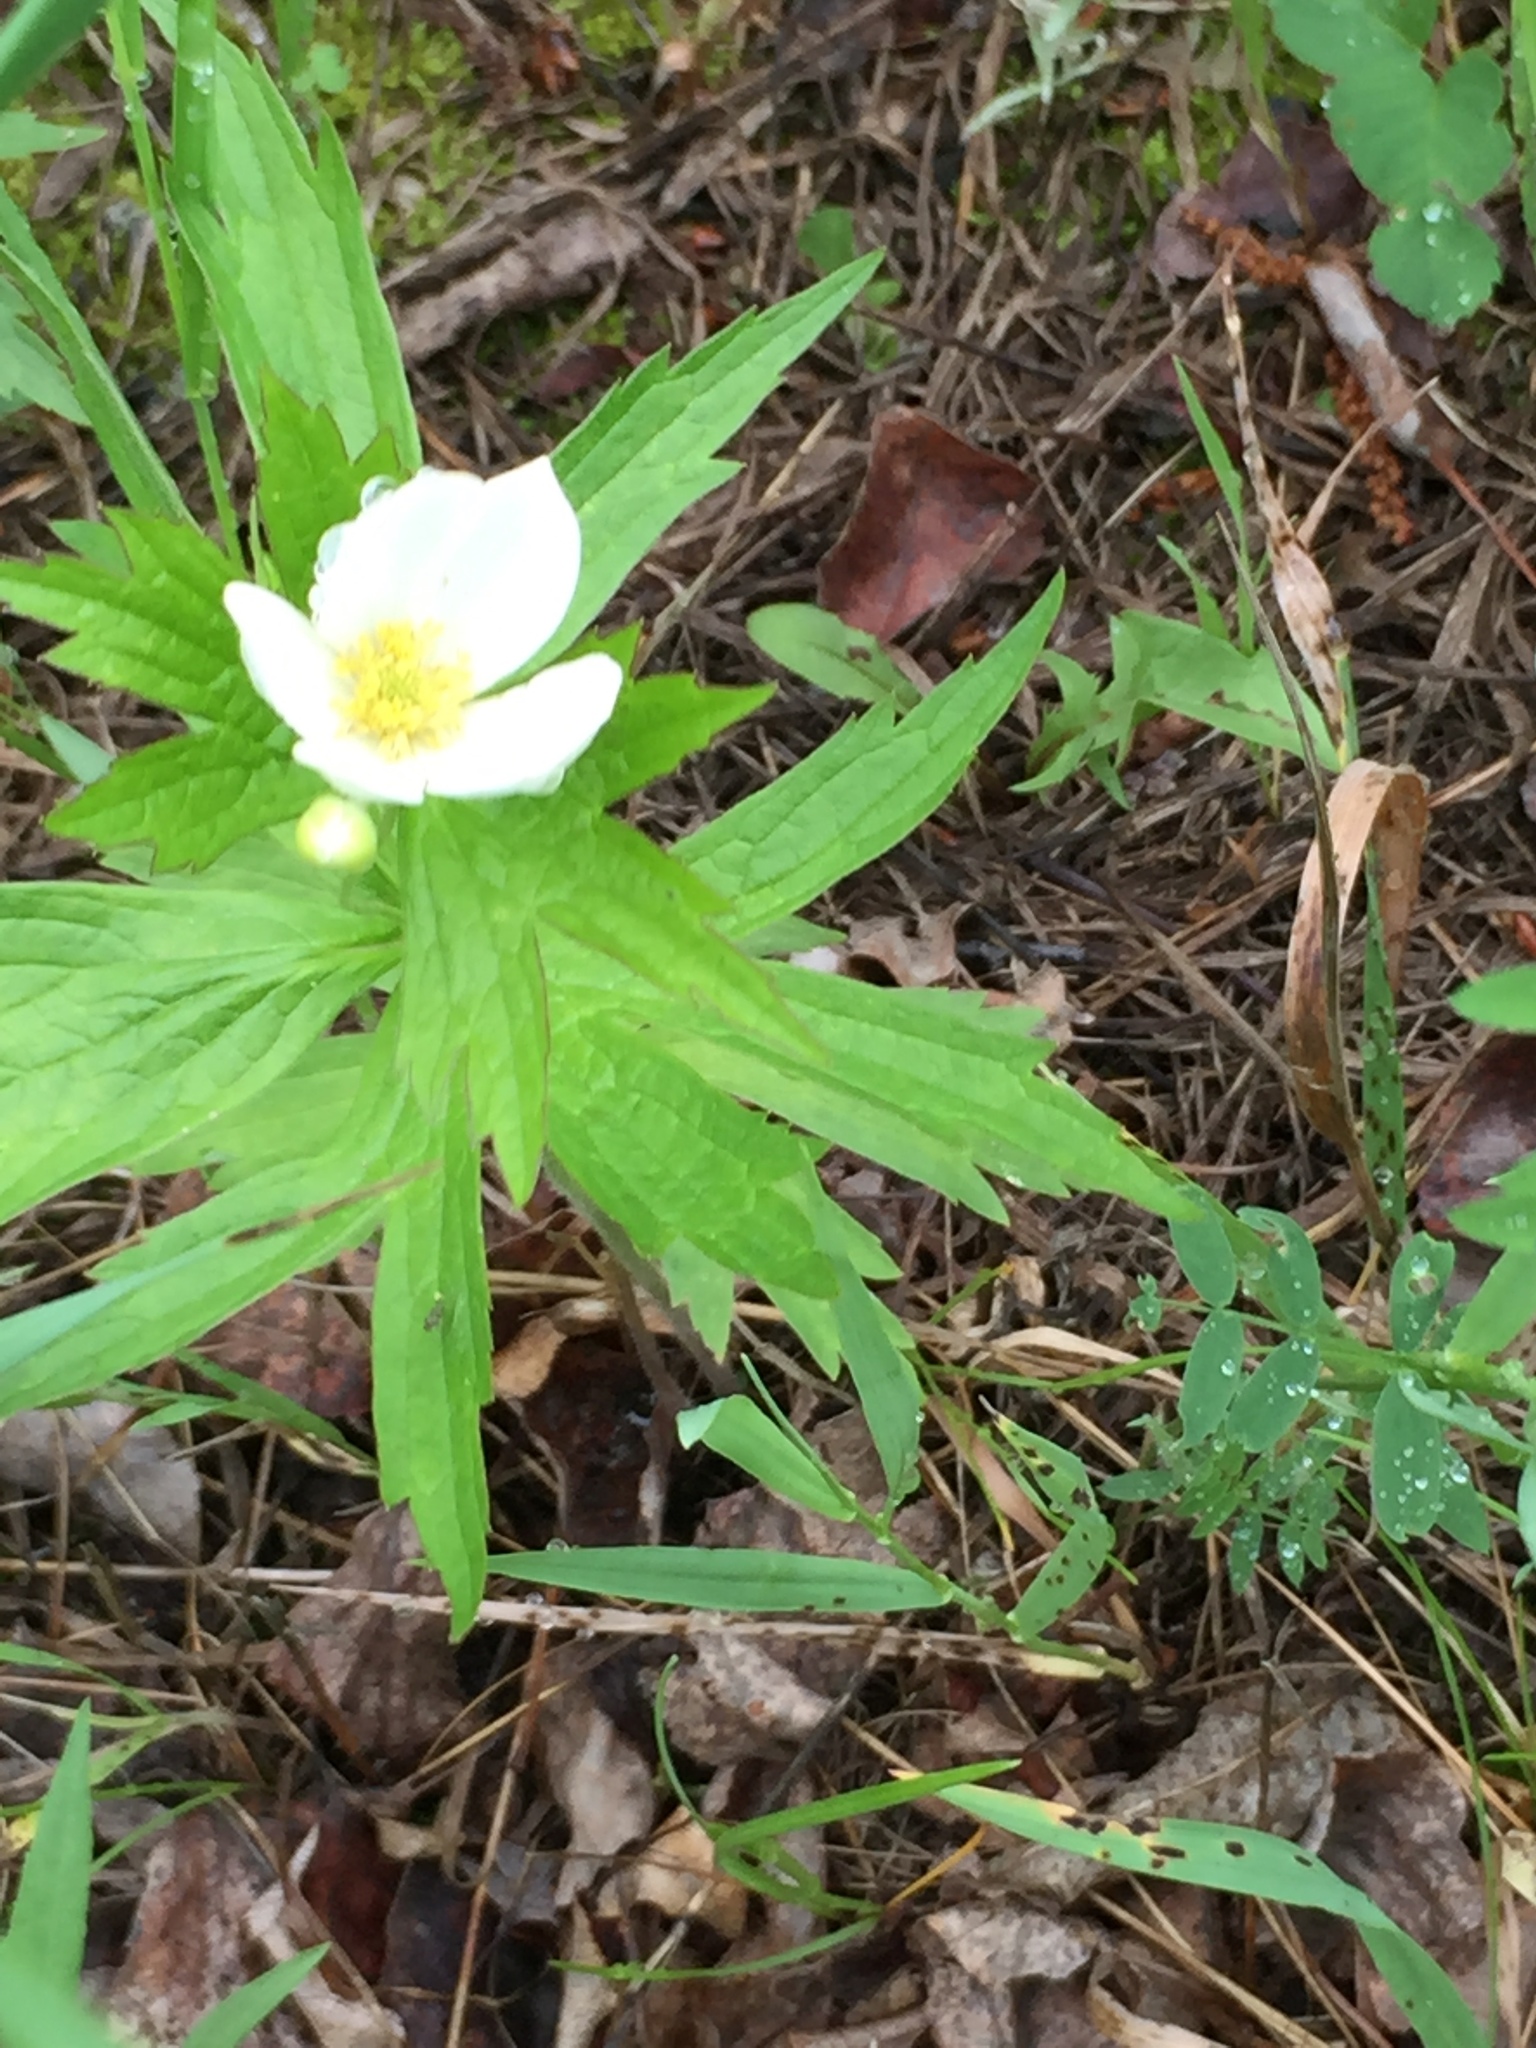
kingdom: Plantae
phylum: Tracheophyta
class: Magnoliopsida
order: Ranunculales
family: Ranunculaceae
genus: Anemonastrum
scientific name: Anemonastrum canadense
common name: Canada anemone
